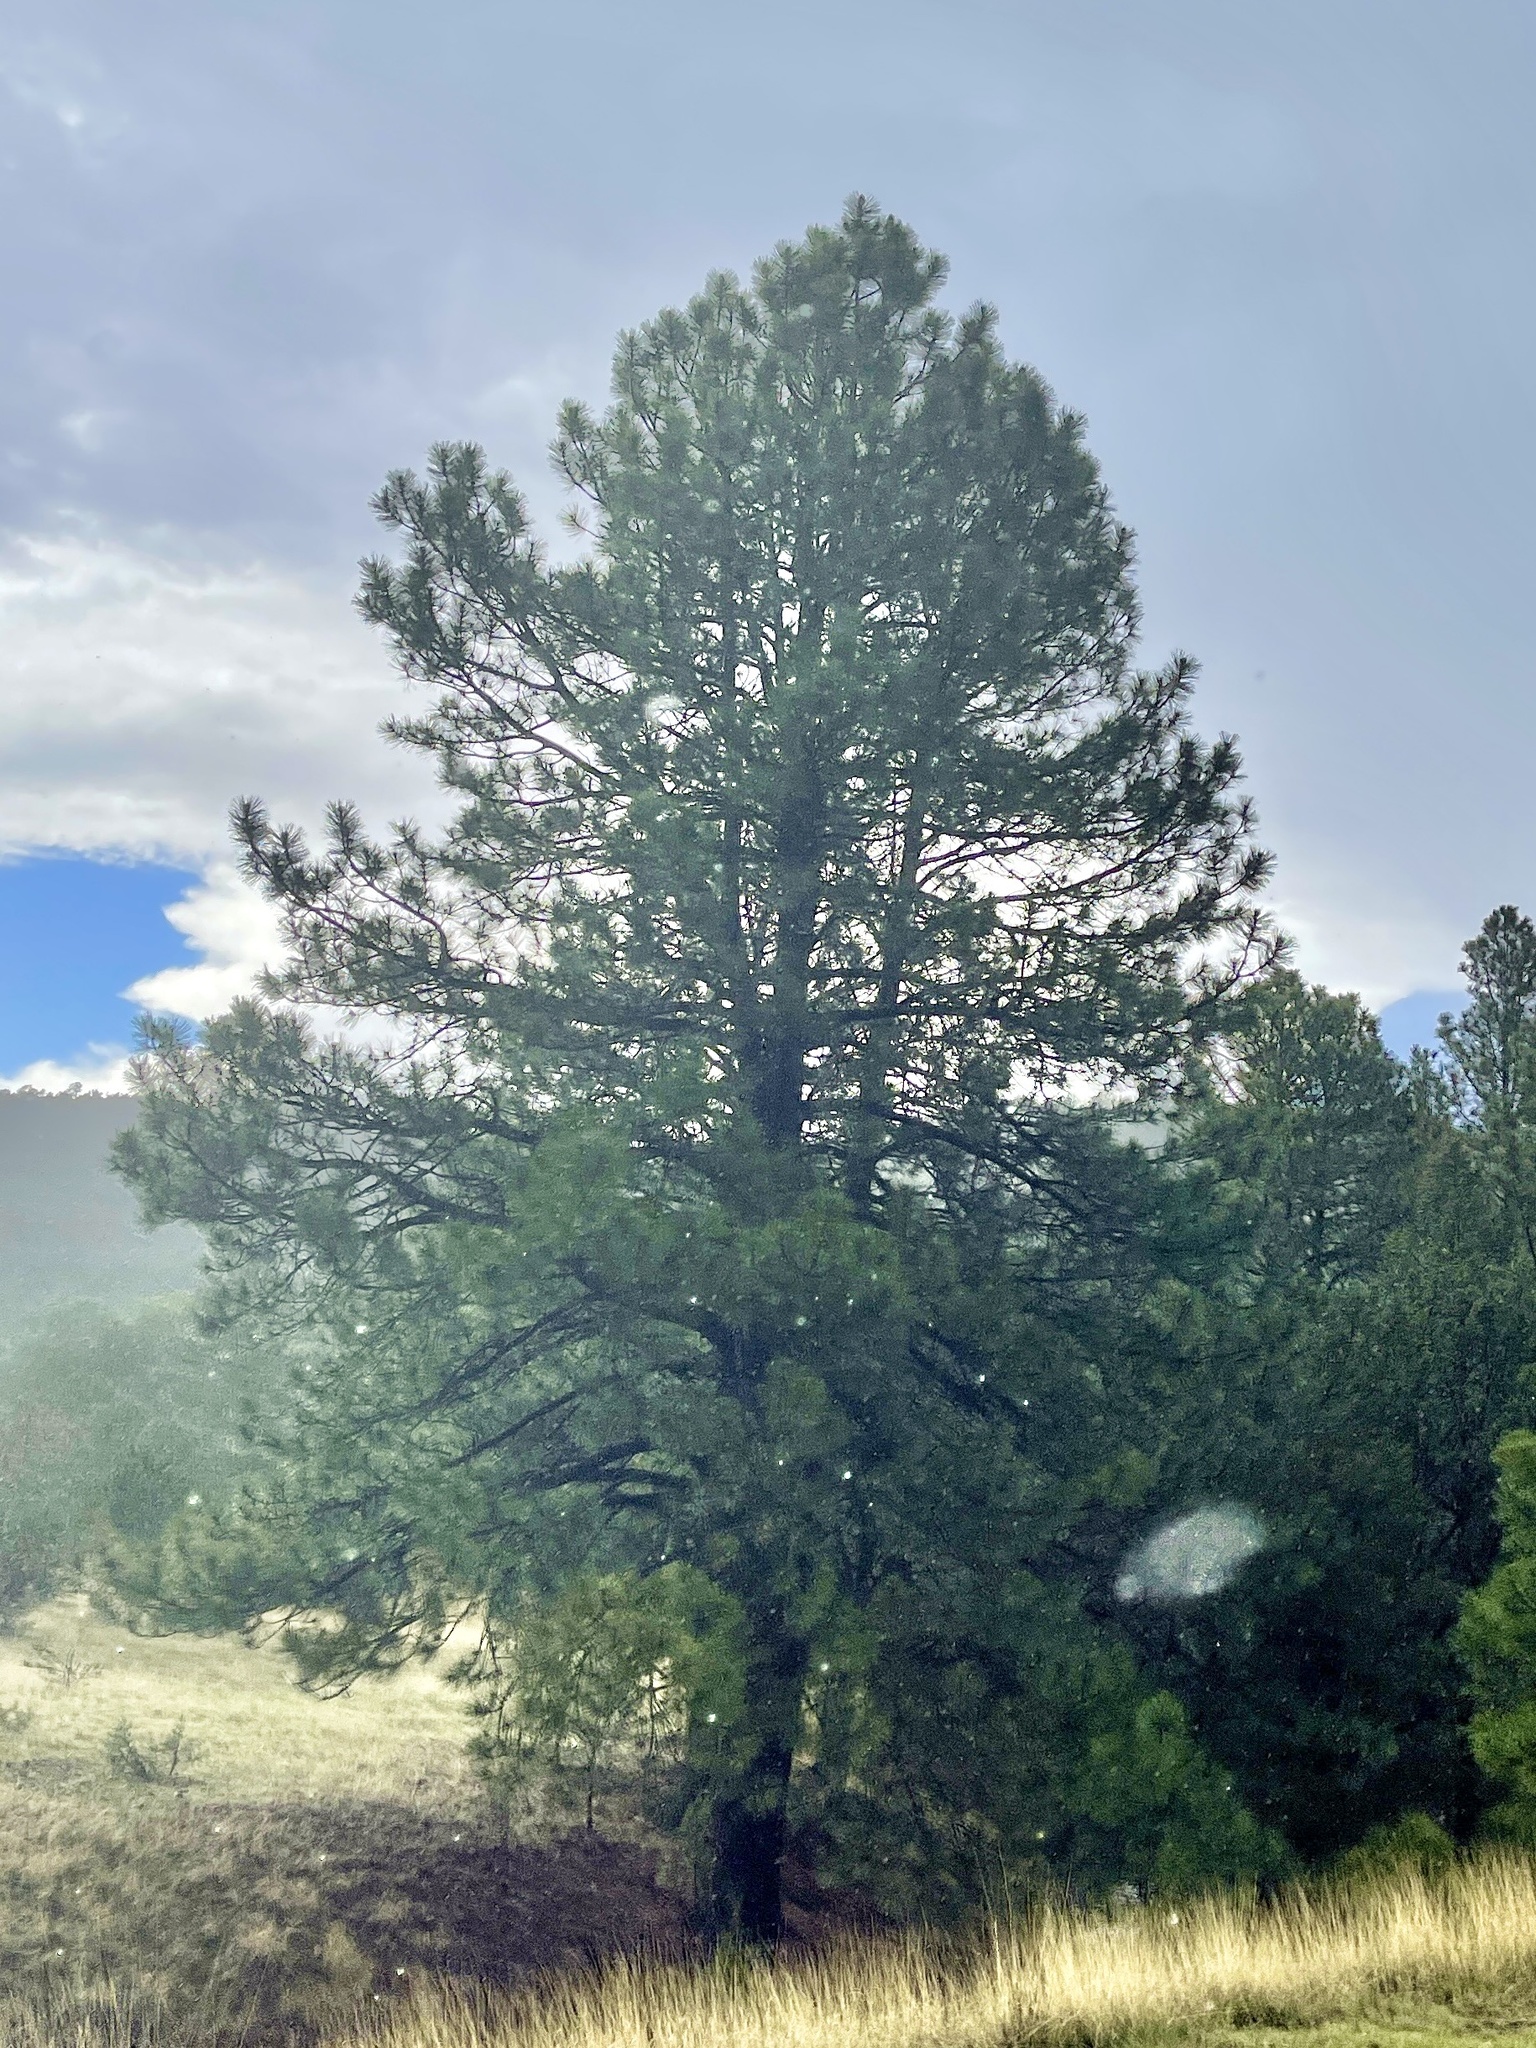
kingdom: Plantae
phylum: Tracheophyta
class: Pinopsida
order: Pinales
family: Pinaceae
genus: Pinus
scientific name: Pinus ponderosa
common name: Western yellow-pine
